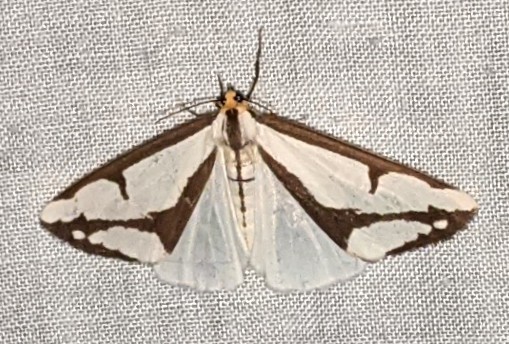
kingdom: Animalia
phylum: Arthropoda
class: Insecta
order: Lepidoptera
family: Erebidae
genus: Haploa
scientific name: Haploa lecontei
